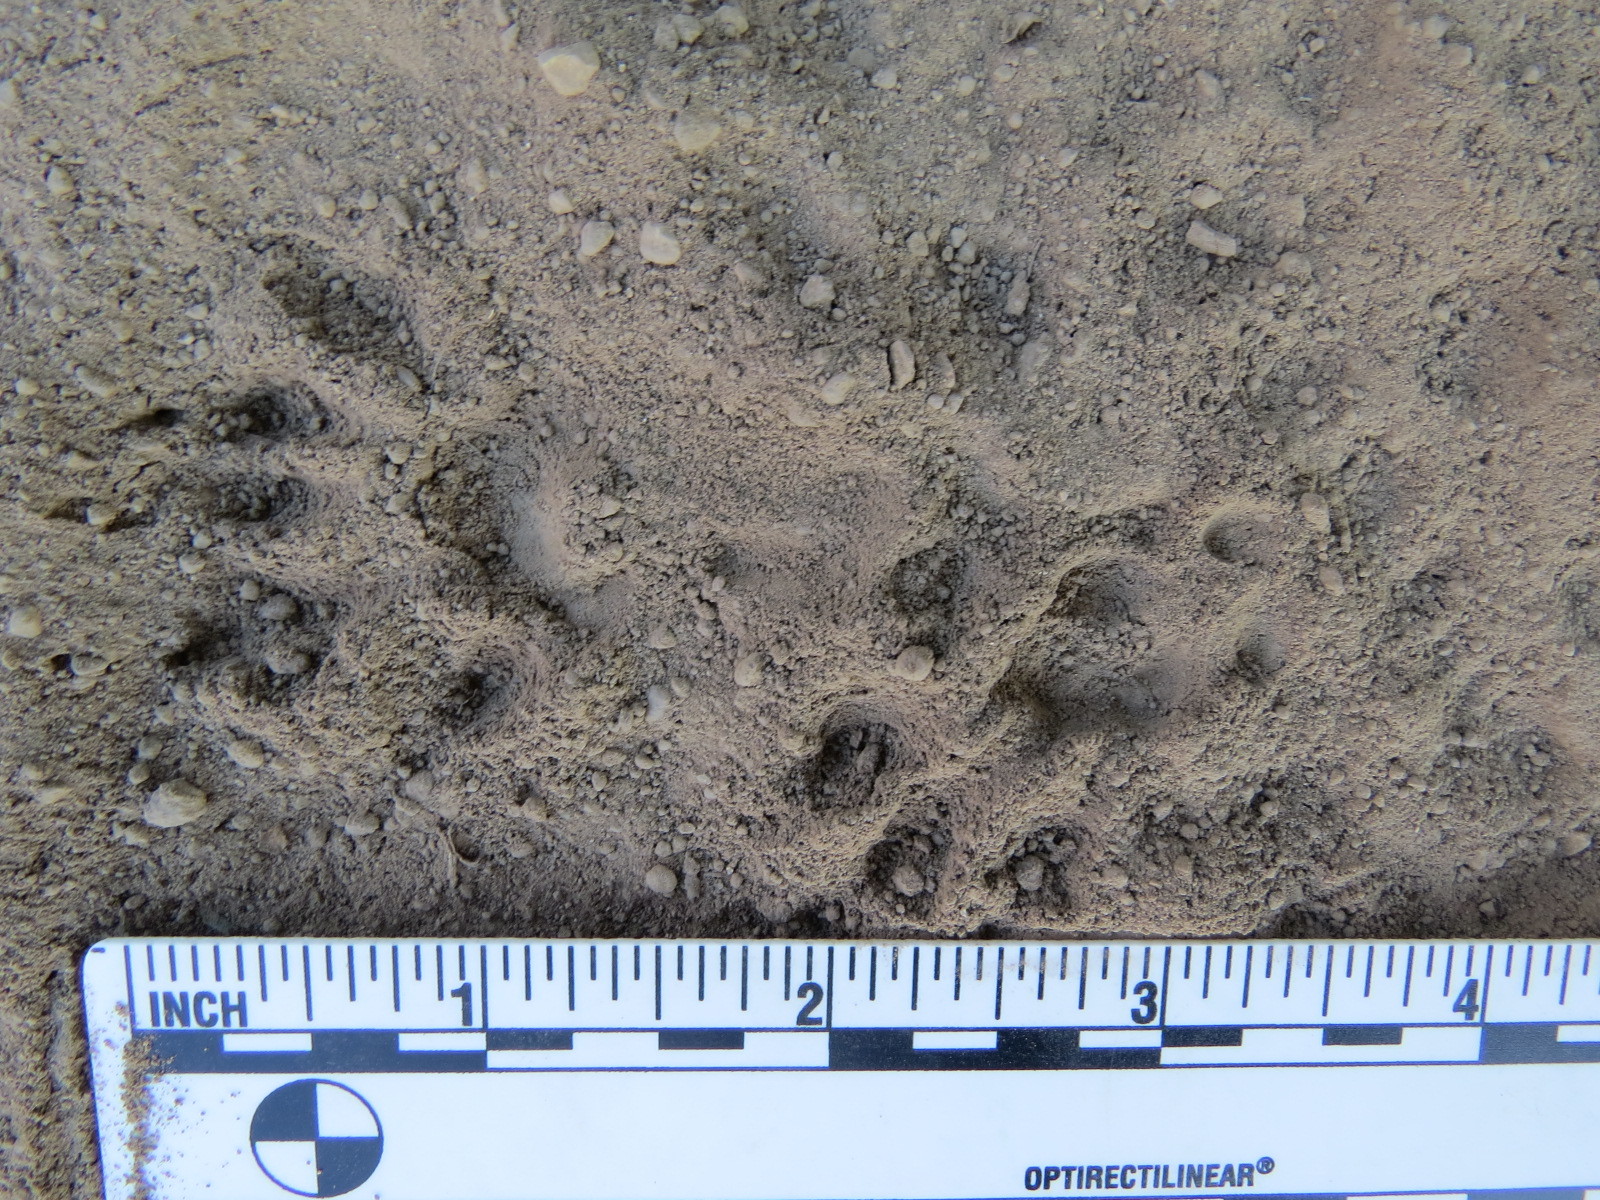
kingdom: Animalia
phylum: Chordata
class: Mammalia
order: Rodentia
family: Sciuridae
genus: Sciurus
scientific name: Sciurus griseus
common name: Western gray squirrel
